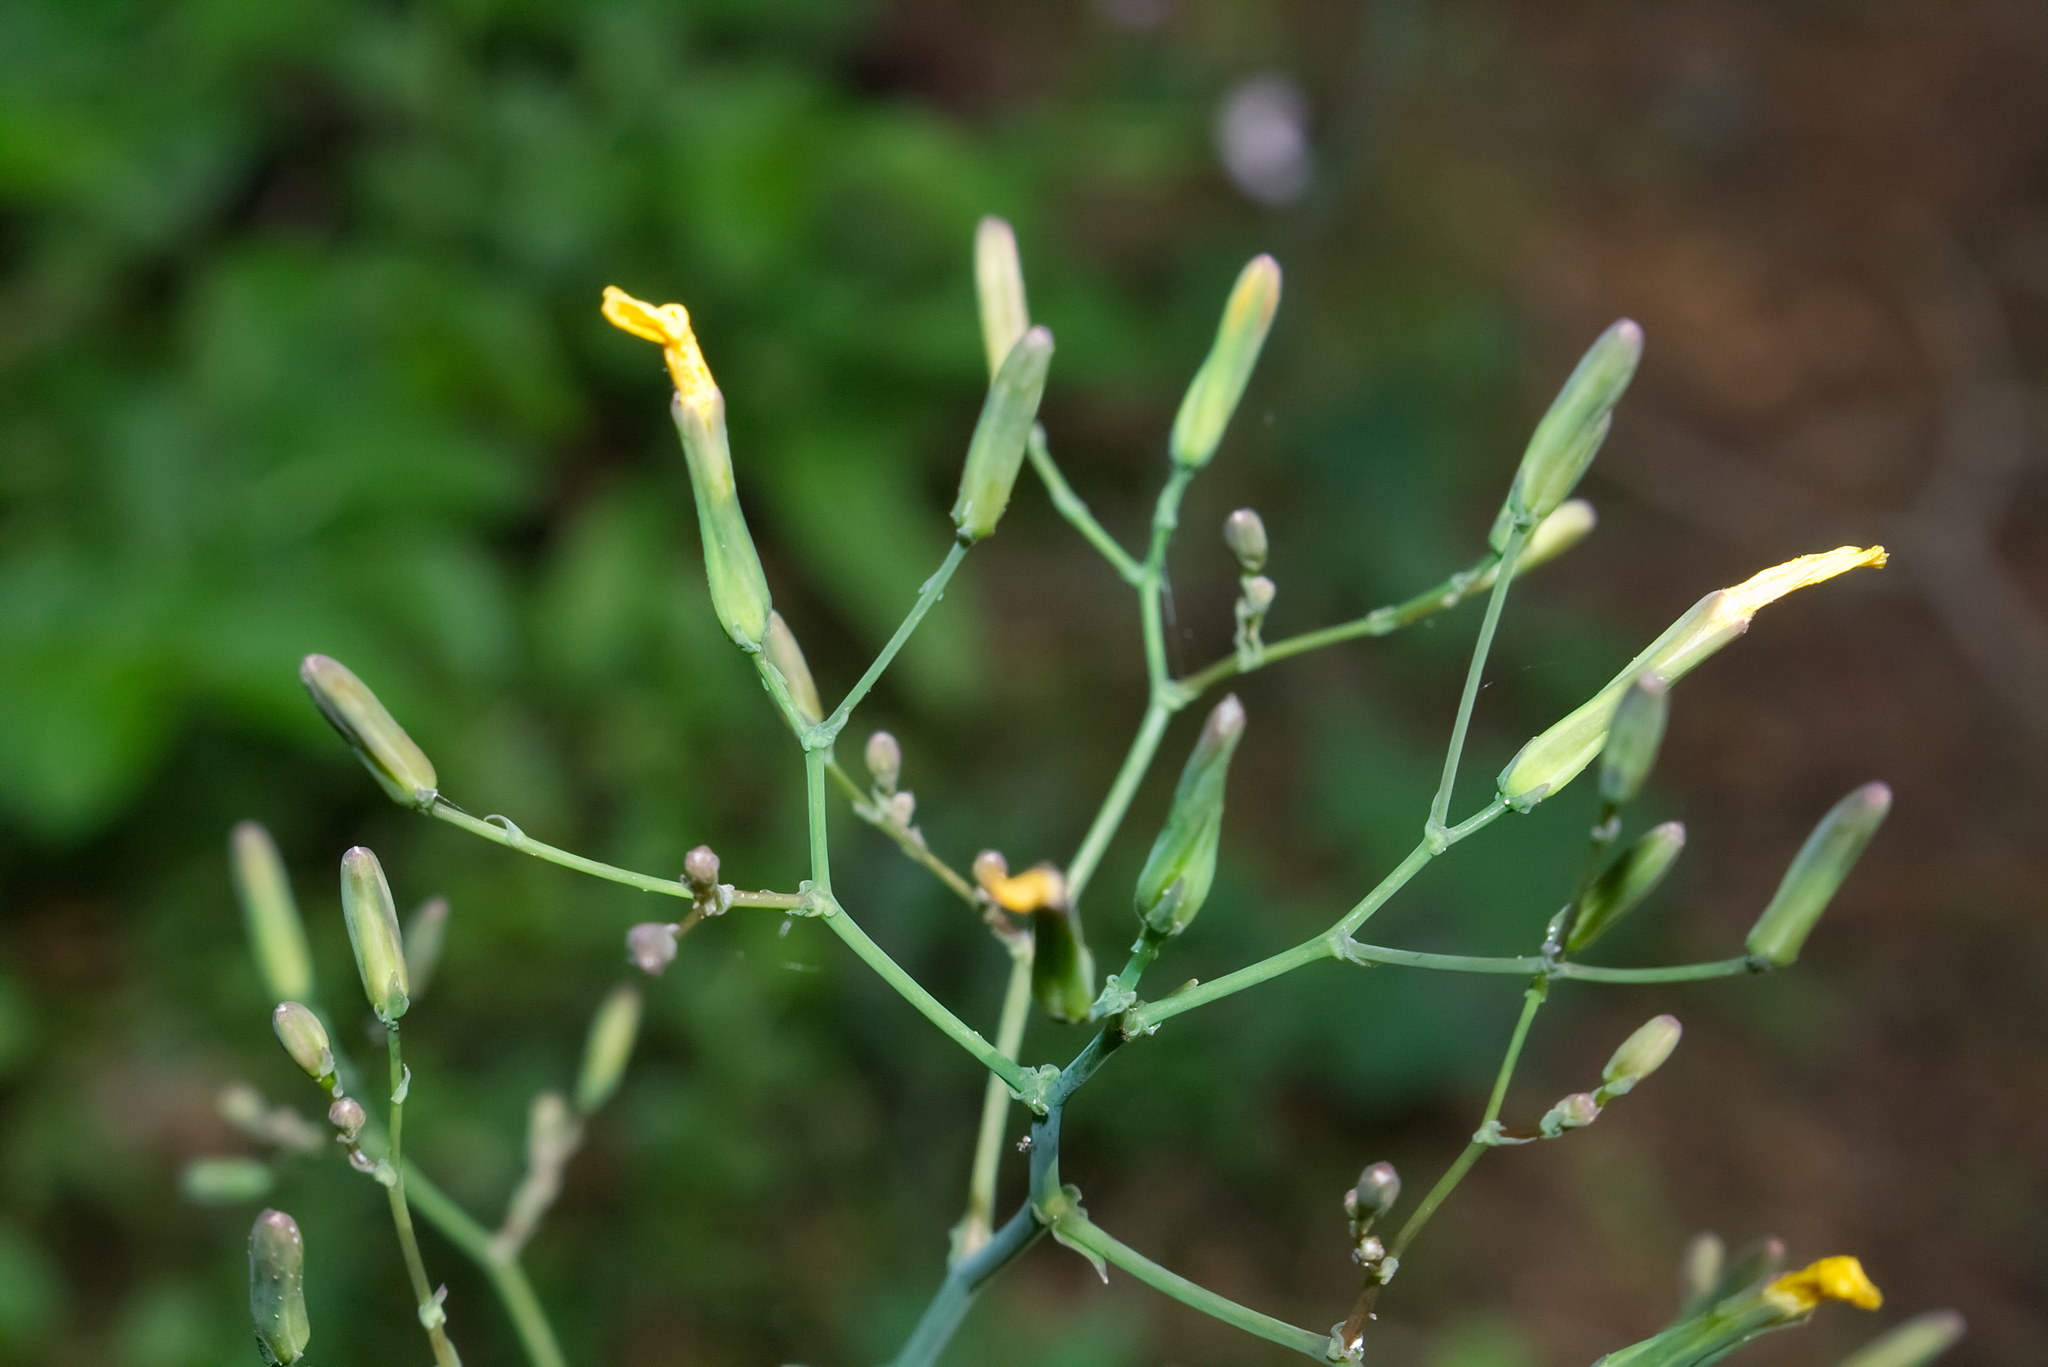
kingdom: Plantae
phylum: Tracheophyta
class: Magnoliopsida
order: Asterales
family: Asteraceae
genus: Mycelis
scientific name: Mycelis muralis
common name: Wall lettuce
